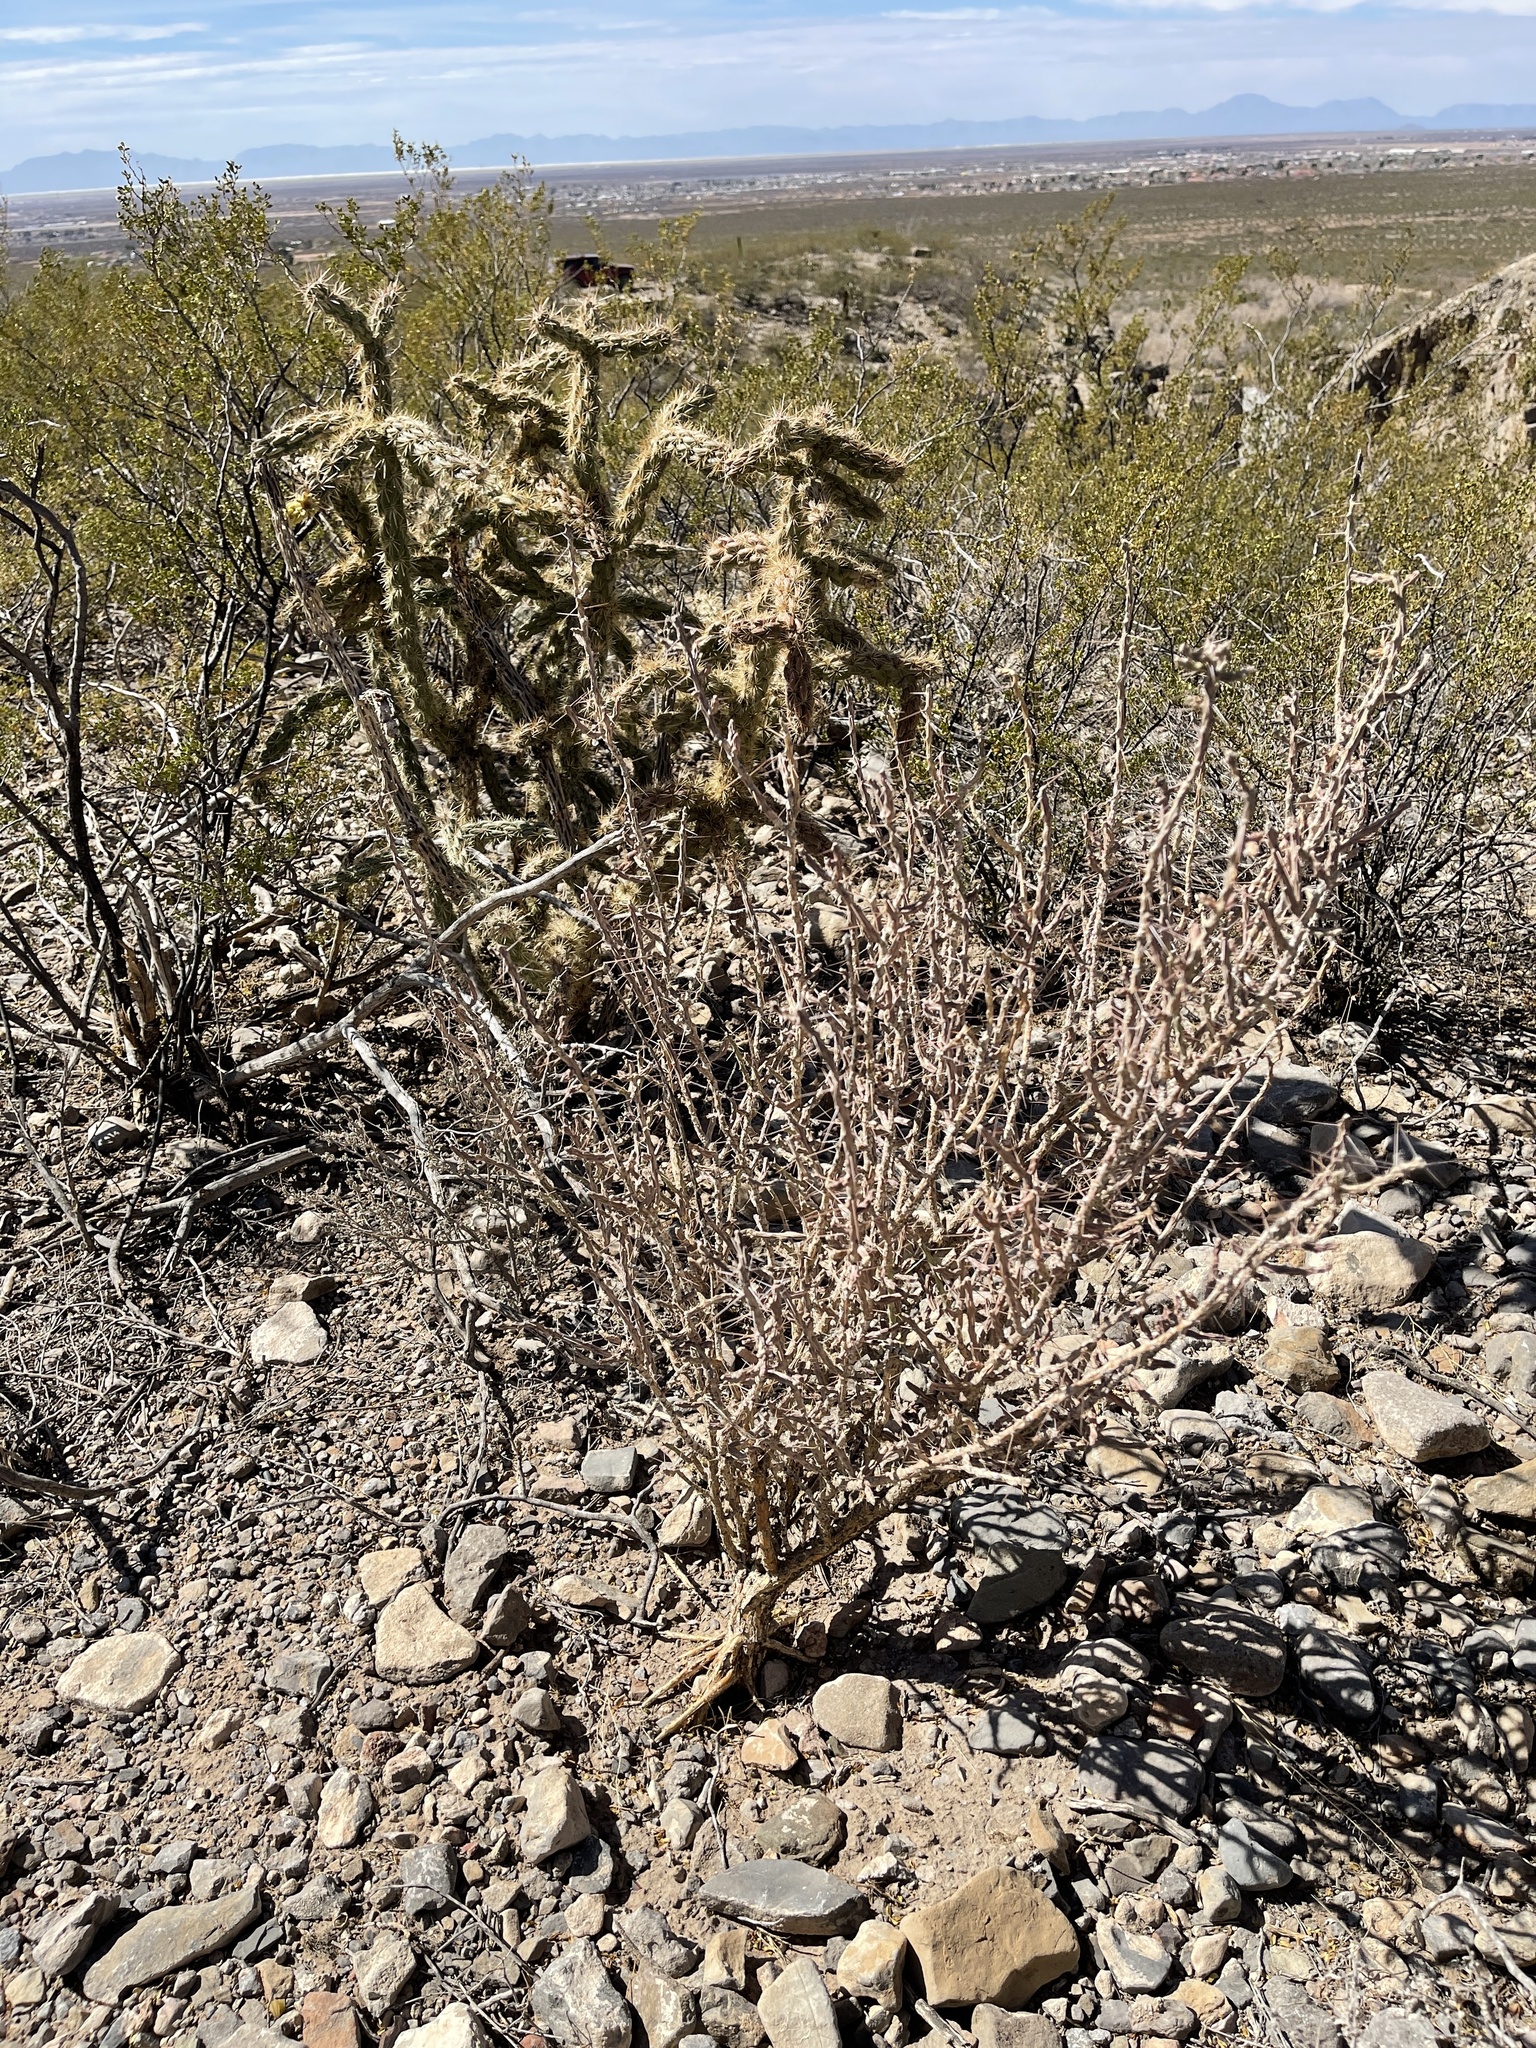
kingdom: Plantae
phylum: Tracheophyta
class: Magnoliopsida
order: Caryophyllales
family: Cactaceae
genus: Cylindropuntia
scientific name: Cylindropuntia leptocaulis
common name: Christmas cactus
